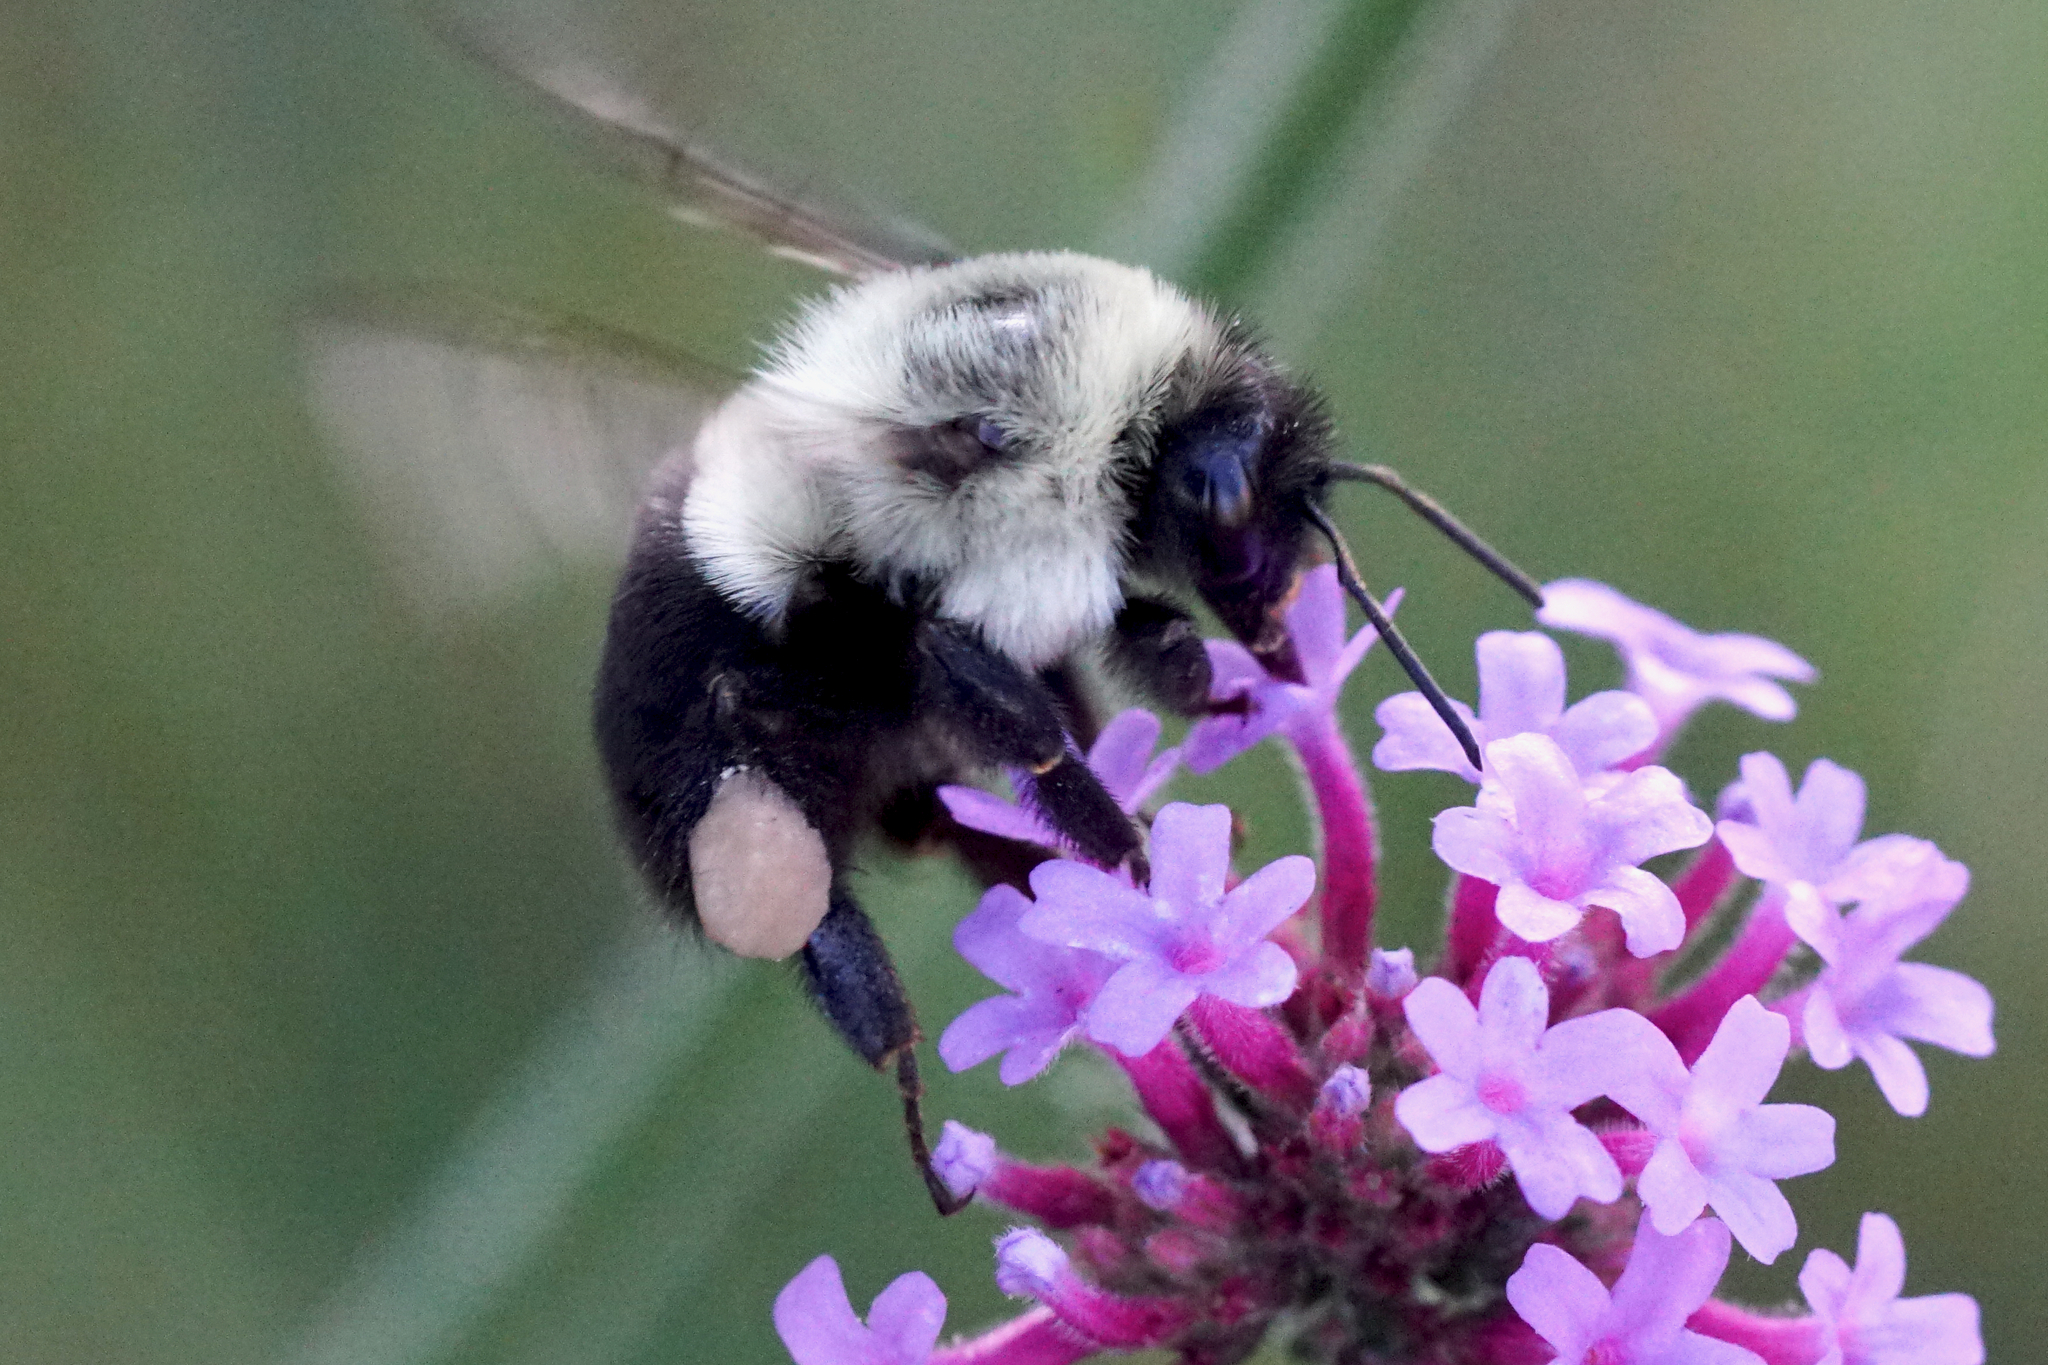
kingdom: Animalia
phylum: Arthropoda
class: Insecta
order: Hymenoptera
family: Apidae
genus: Bombus
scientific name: Bombus impatiens
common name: Common eastern bumble bee
